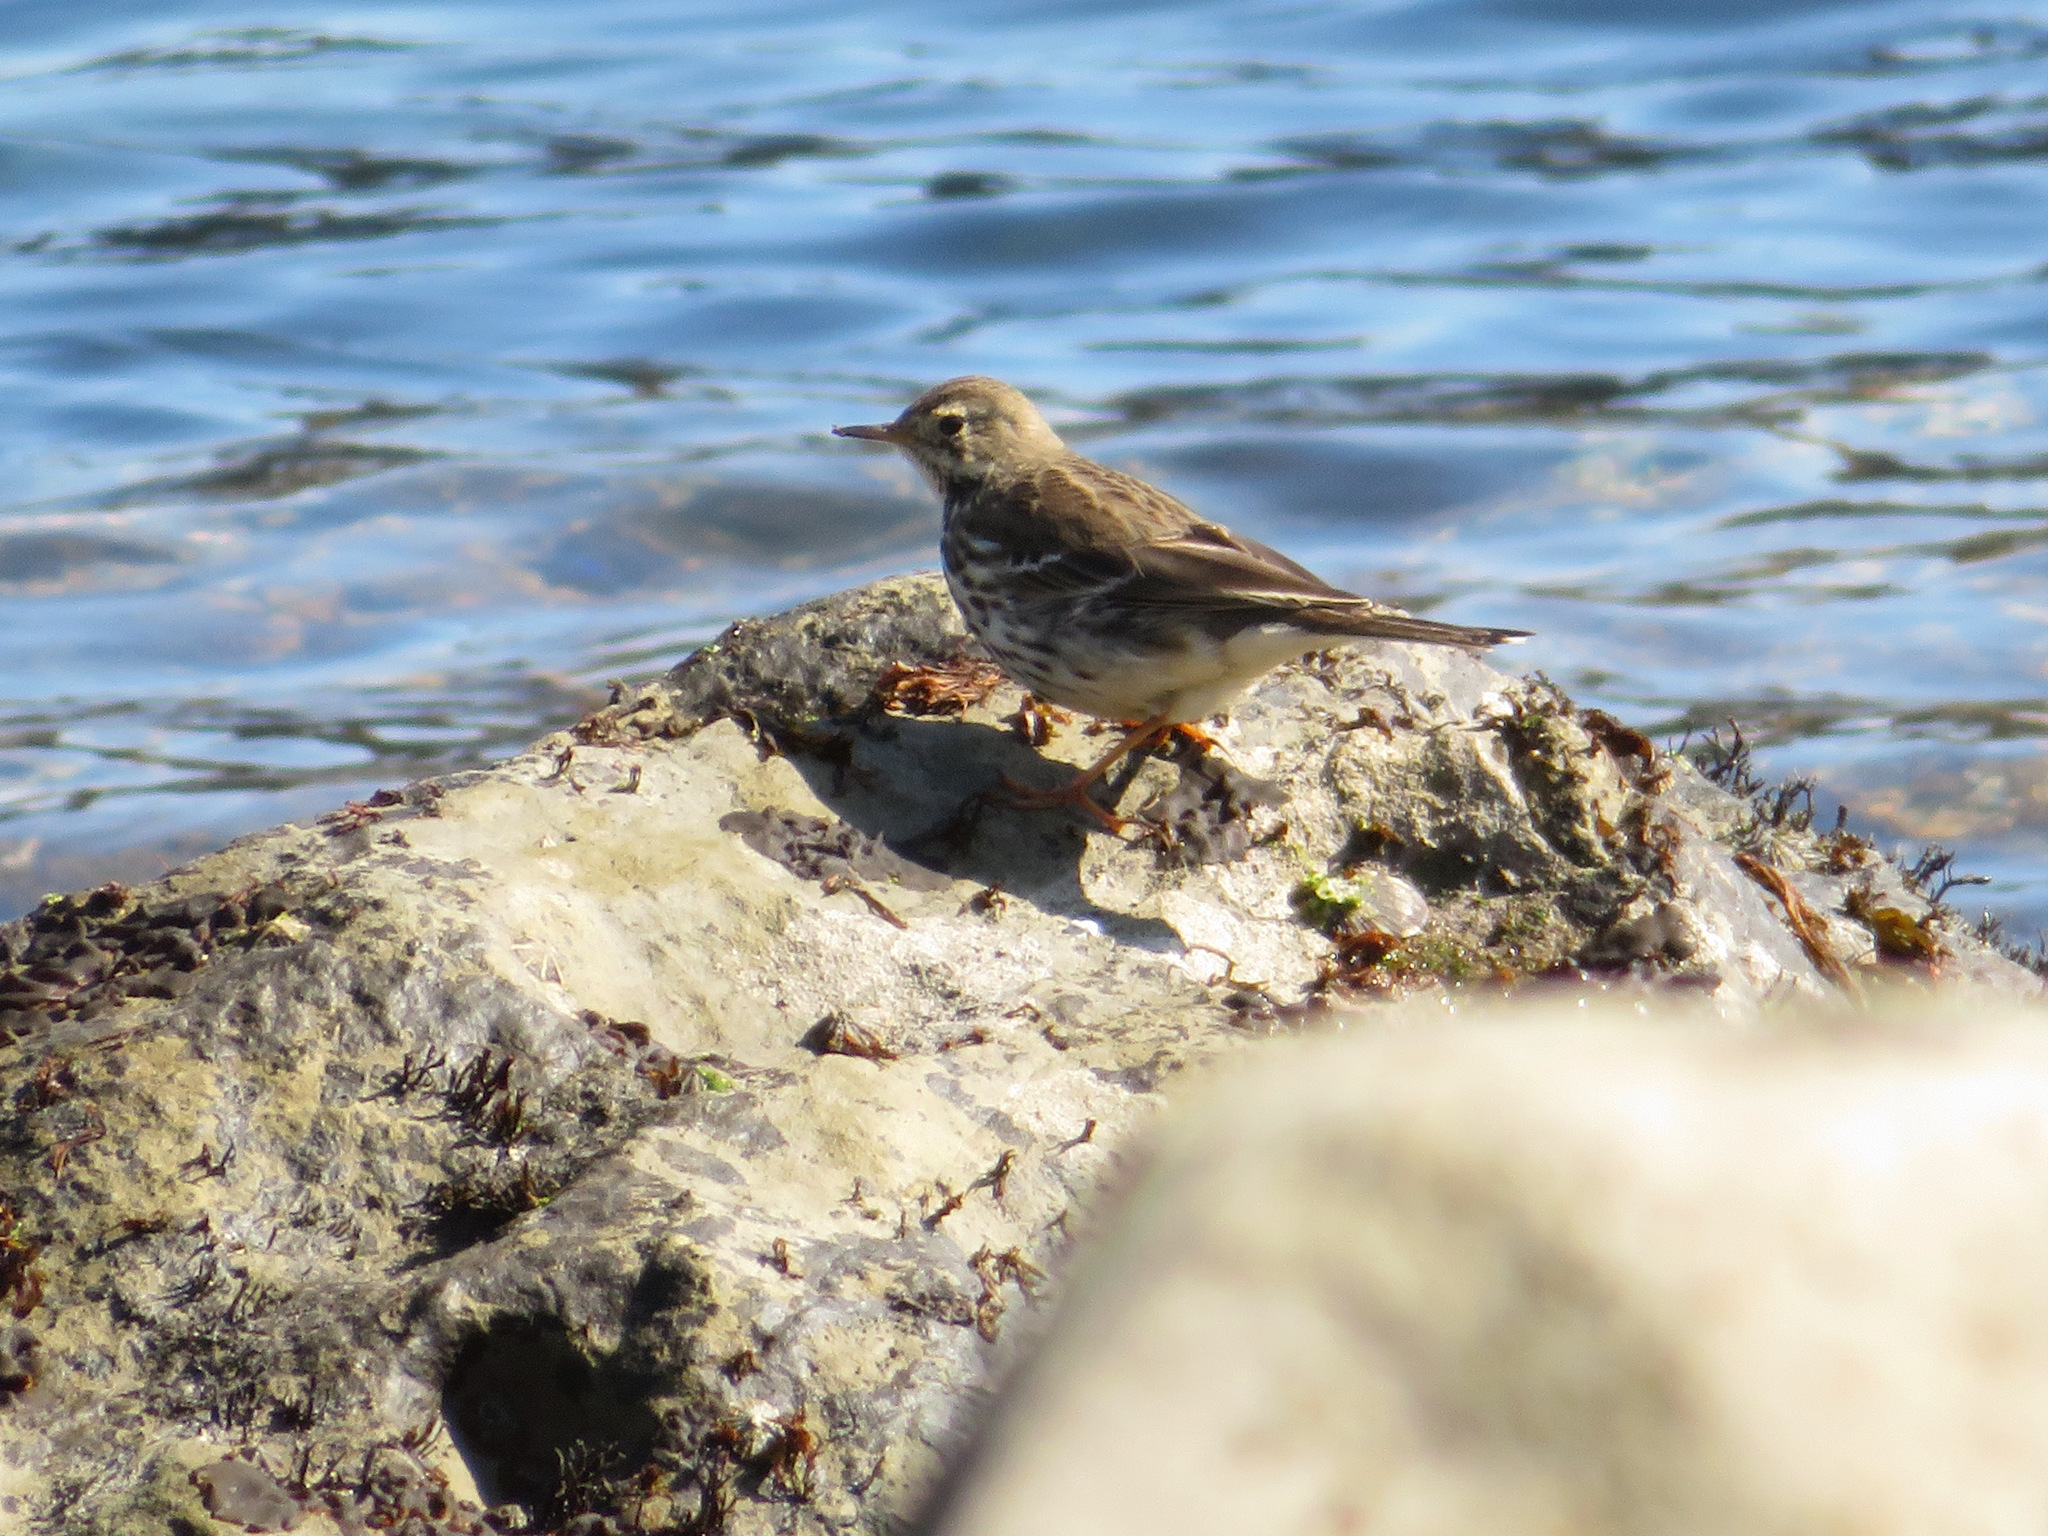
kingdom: Animalia
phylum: Chordata
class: Aves
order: Passeriformes
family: Motacillidae
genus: Anthus
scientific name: Anthus rubescens
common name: Buff-bellied pipit
